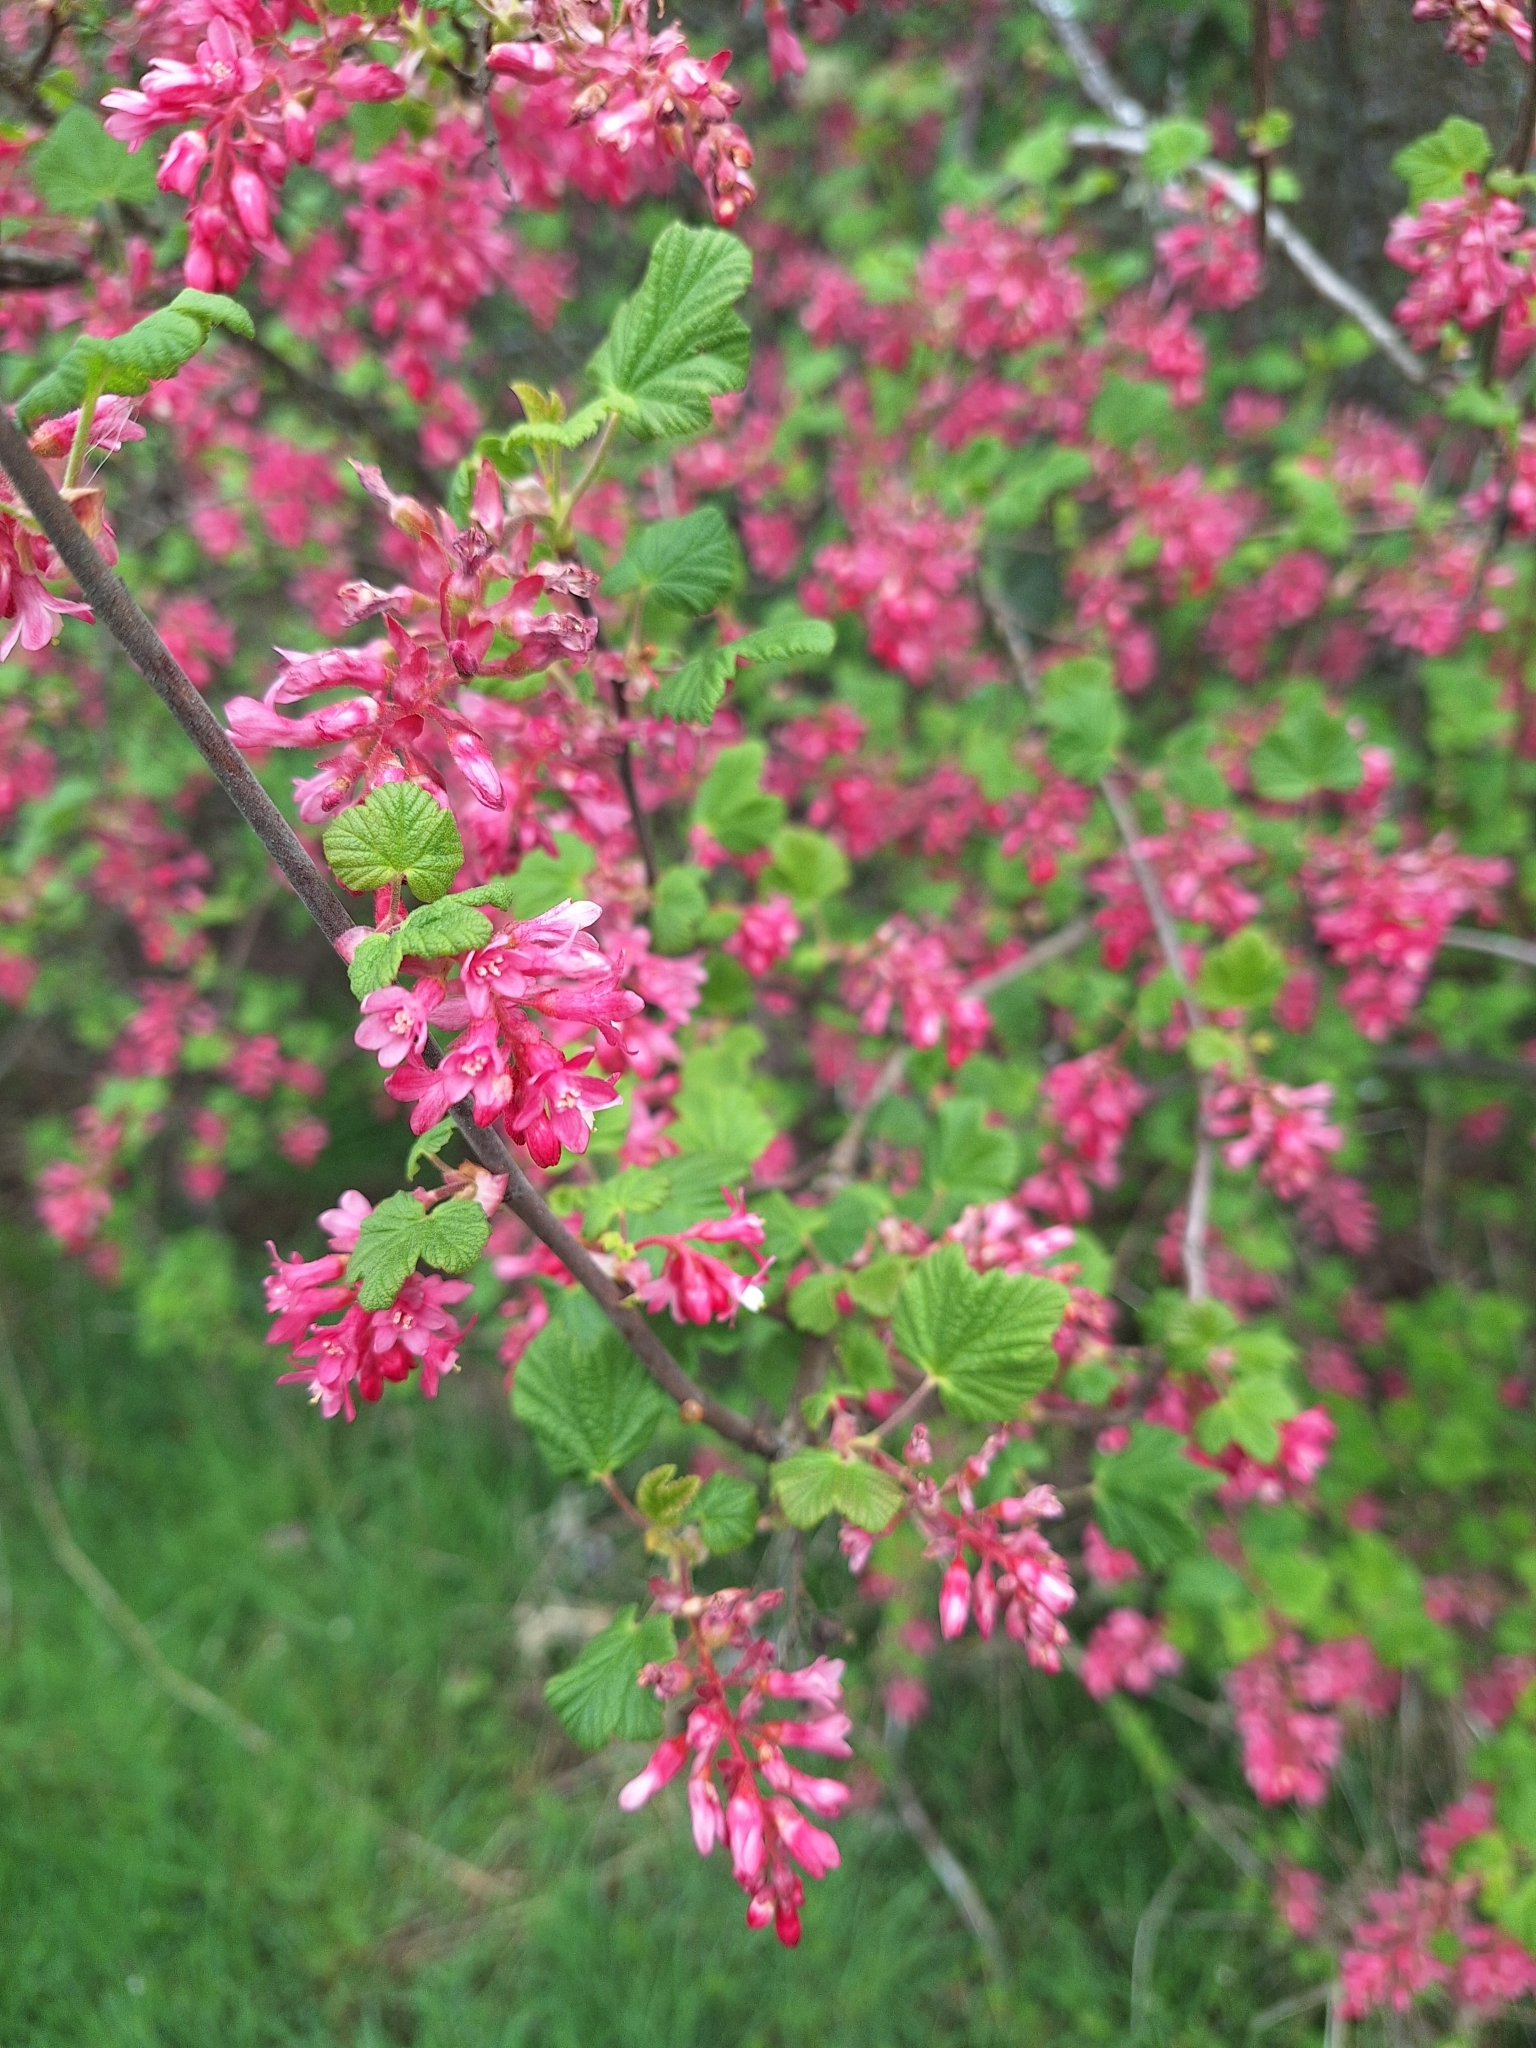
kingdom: Plantae
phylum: Tracheophyta
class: Magnoliopsida
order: Saxifragales
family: Grossulariaceae
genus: Ribes
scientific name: Ribes sanguineum
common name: Flowering currant
